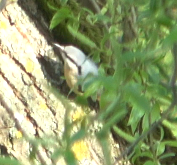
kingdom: Animalia
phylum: Chordata
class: Aves
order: Passeriformes
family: Sittidae
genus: Sitta
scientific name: Sitta europaea
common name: Eurasian nuthatch
